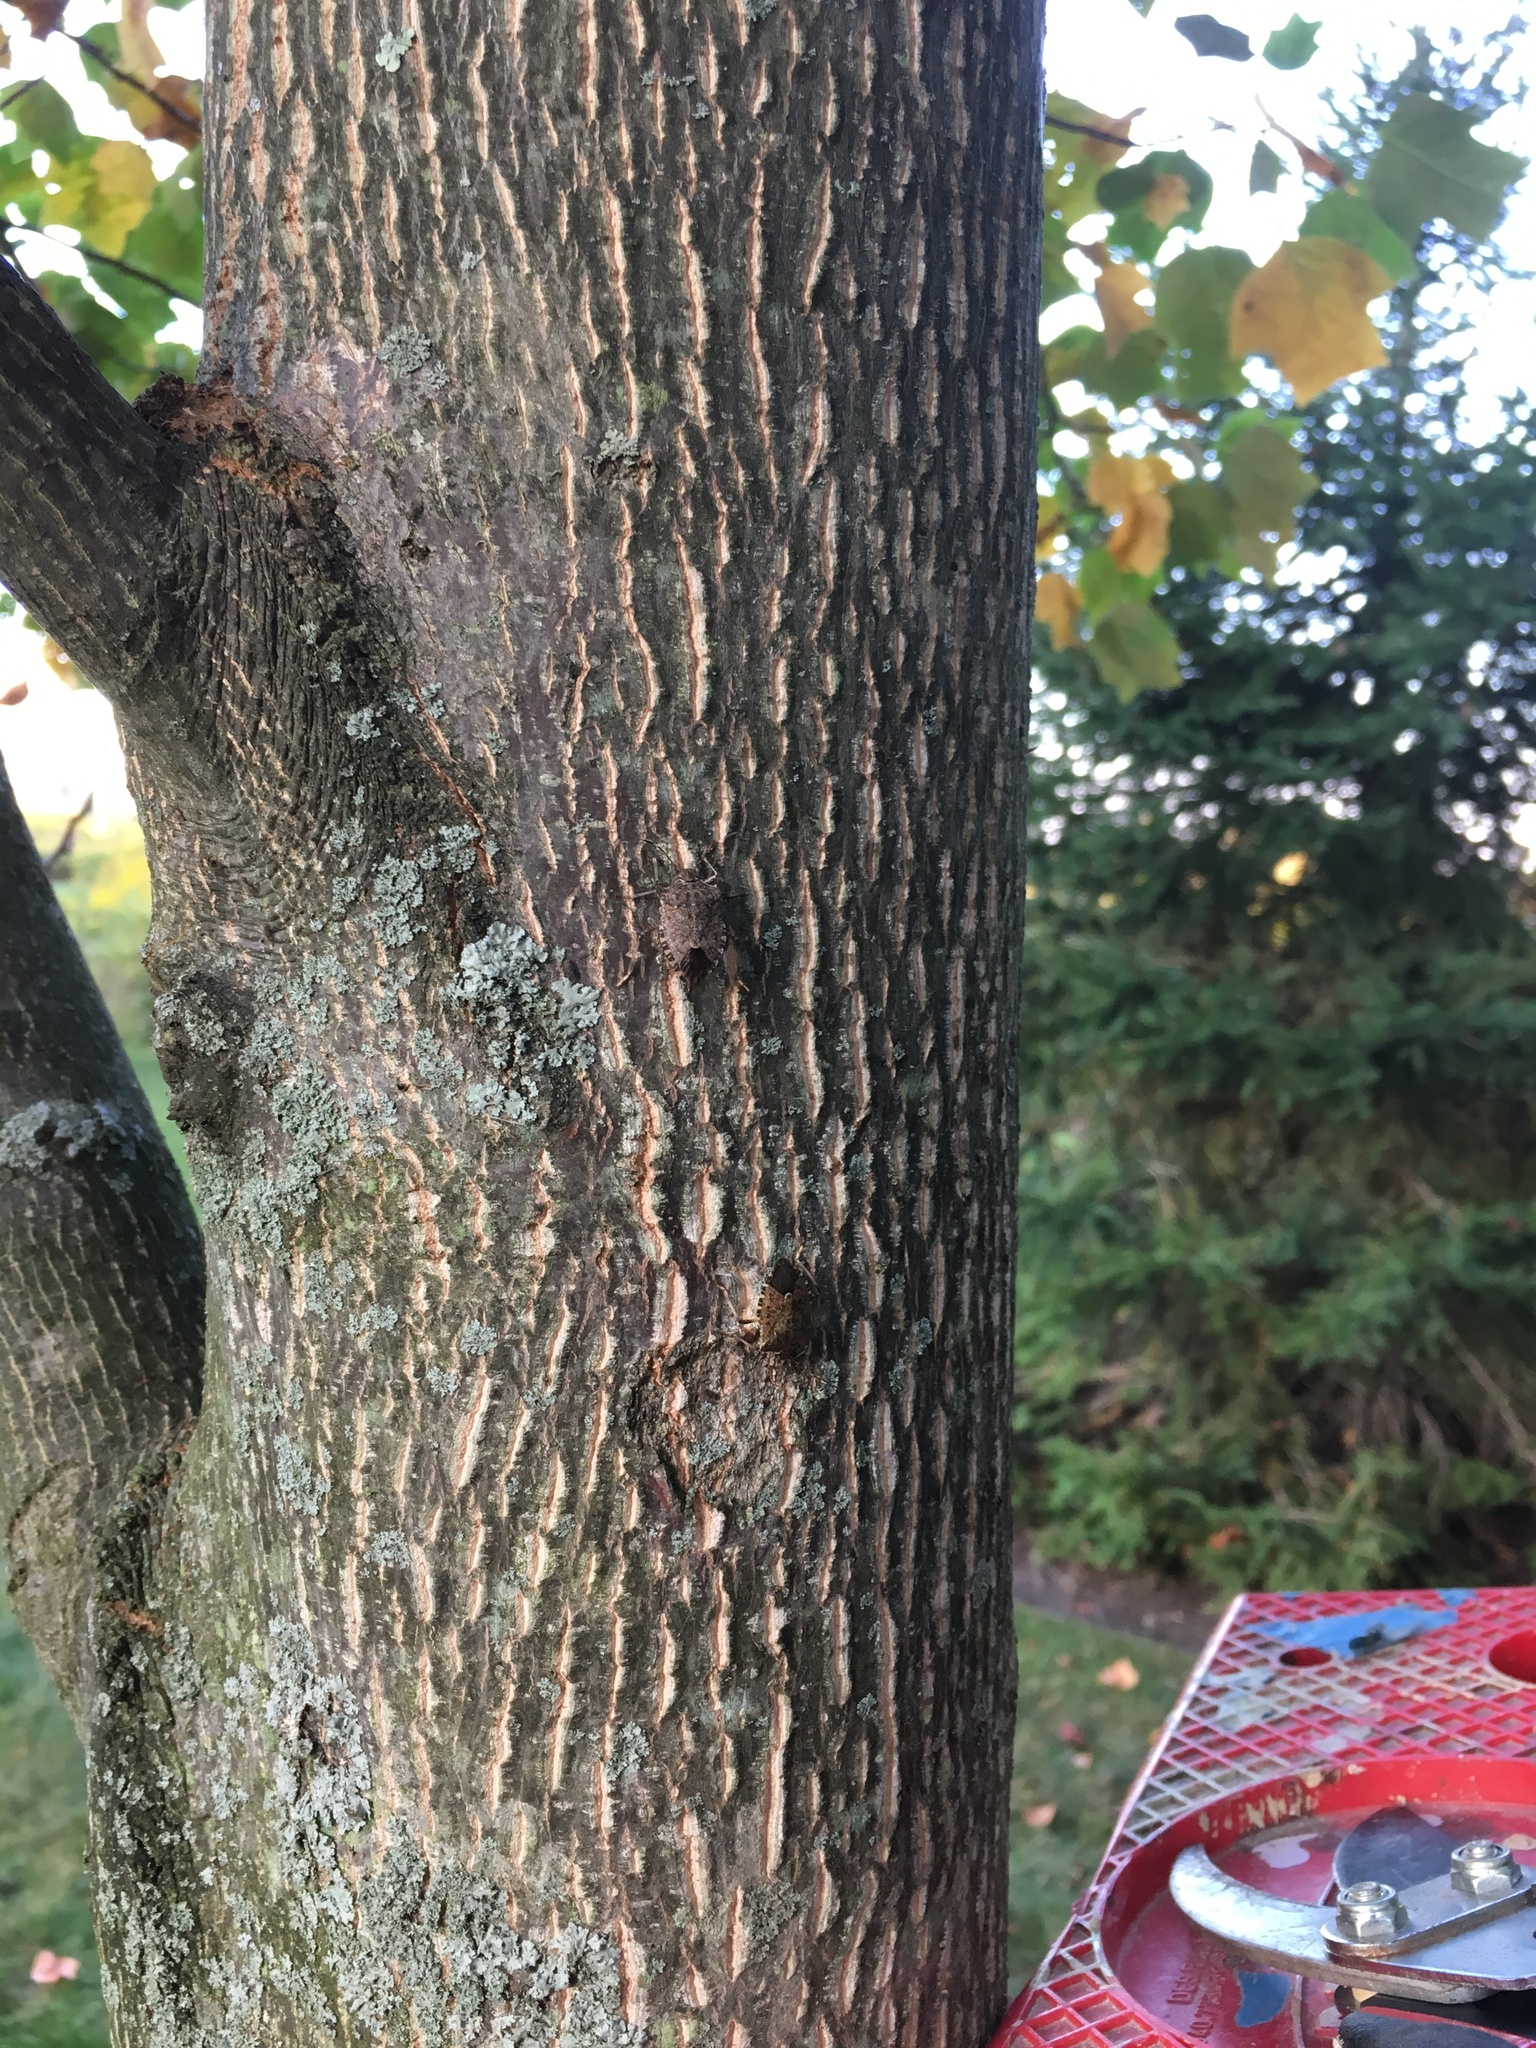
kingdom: Animalia
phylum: Arthropoda
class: Insecta
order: Hemiptera
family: Pentatomidae
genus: Halyomorpha
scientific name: Halyomorpha halys
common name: Brown marmorated stink bug
